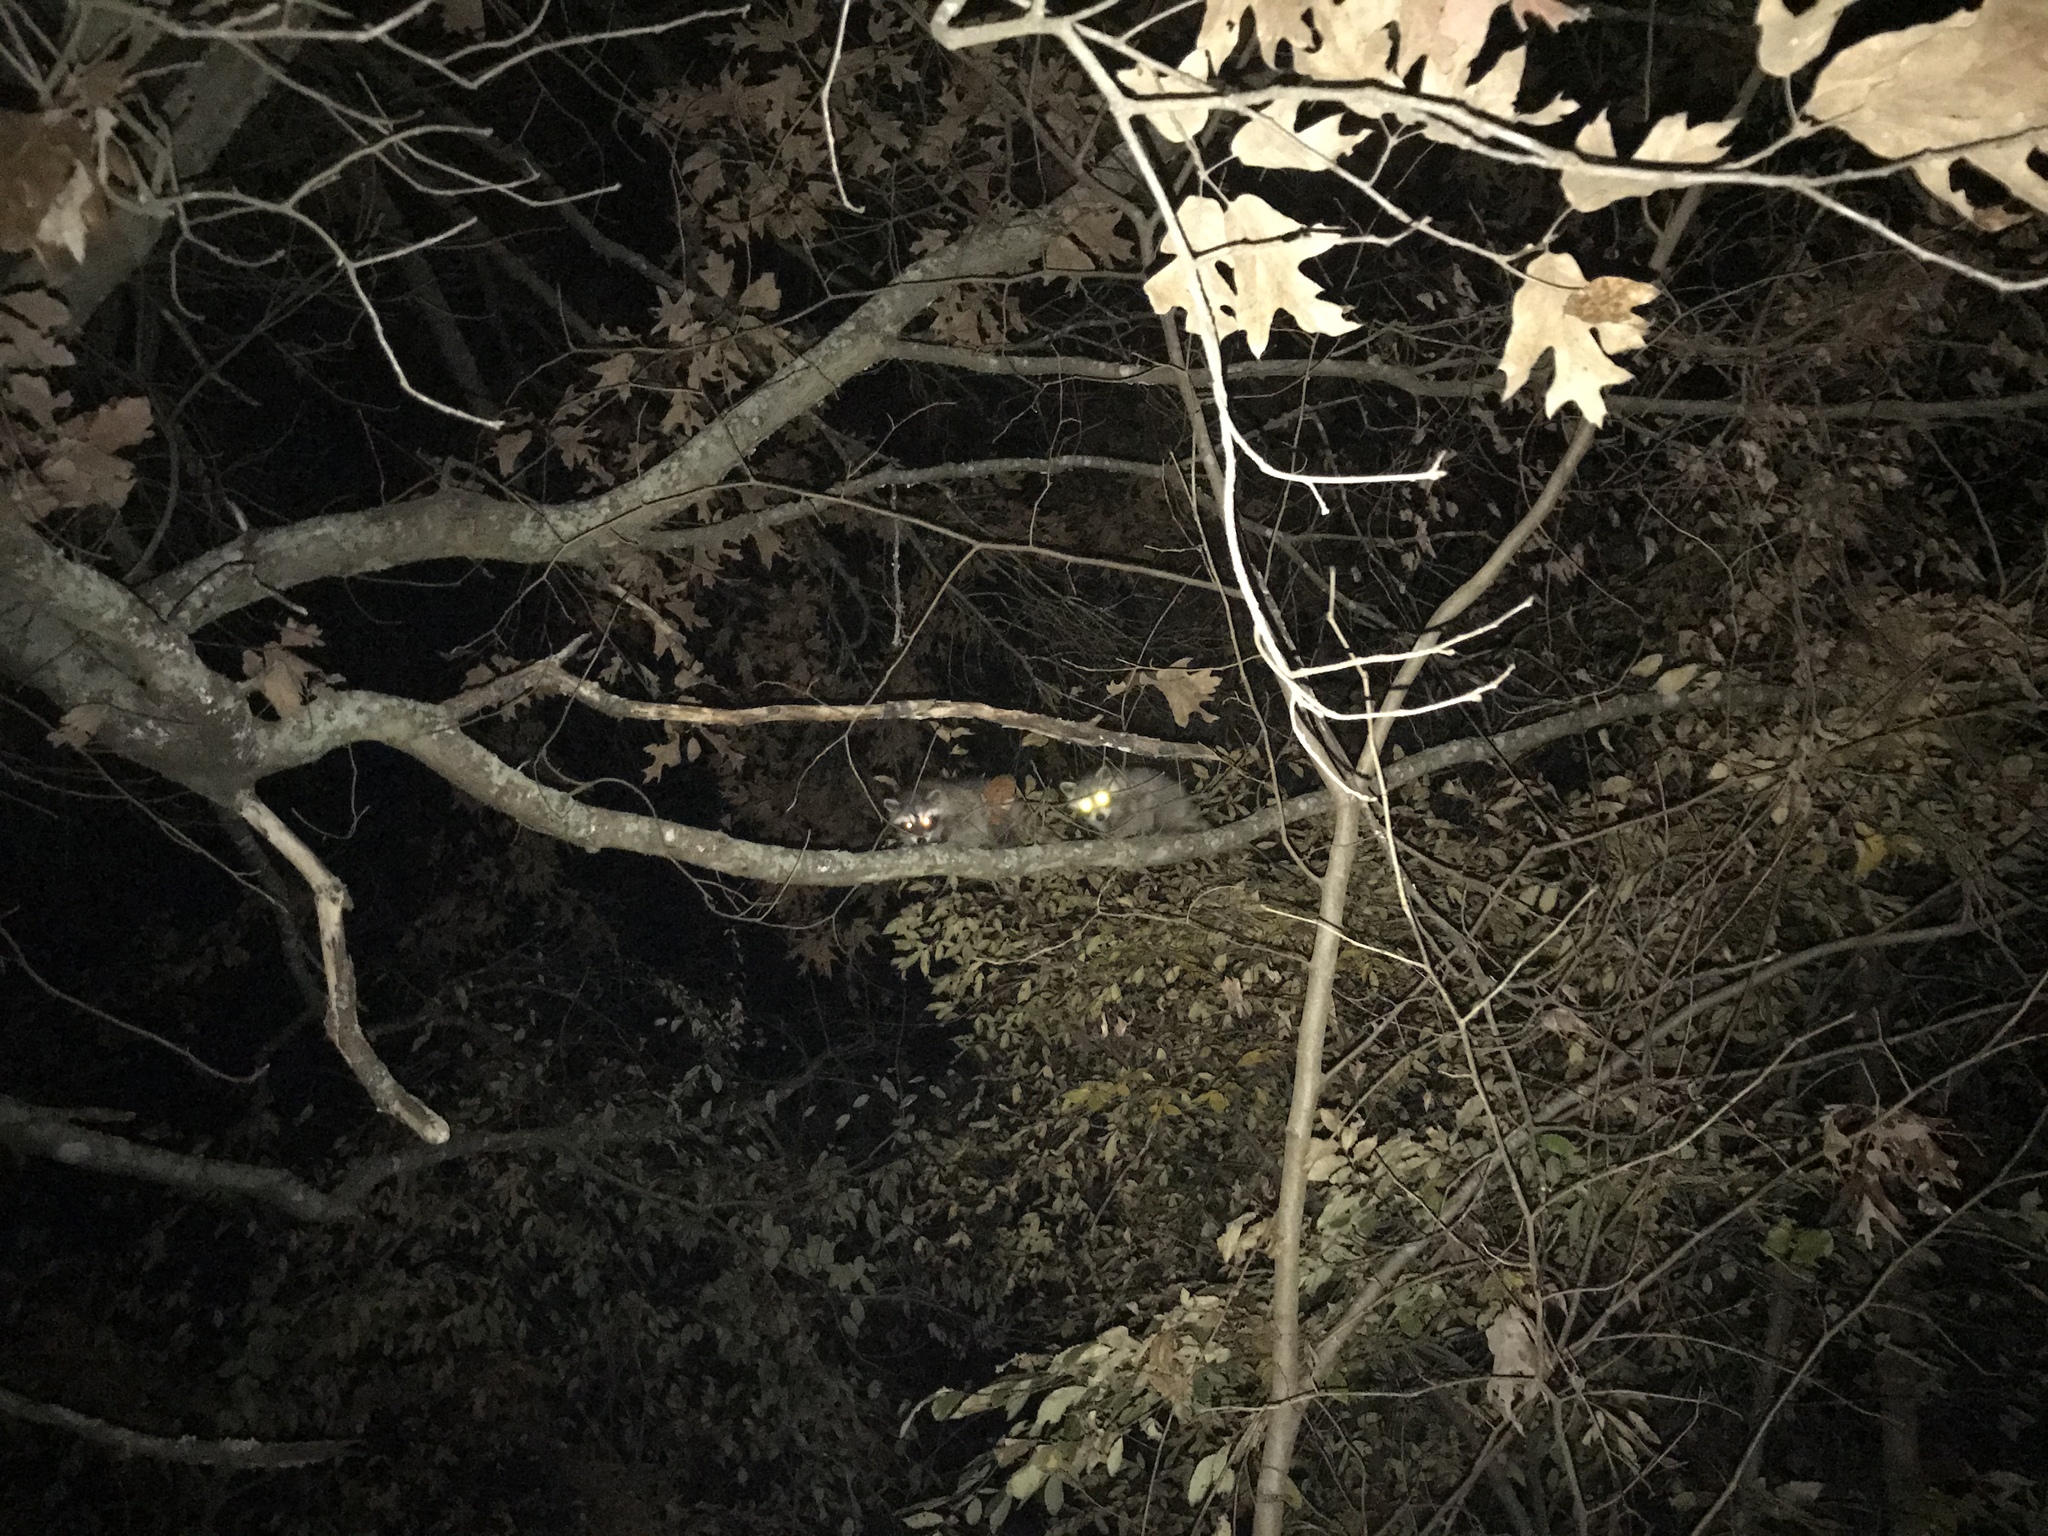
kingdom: Animalia
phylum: Chordata
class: Mammalia
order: Carnivora
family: Procyonidae
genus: Procyon
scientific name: Procyon lotor
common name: Raccoon
